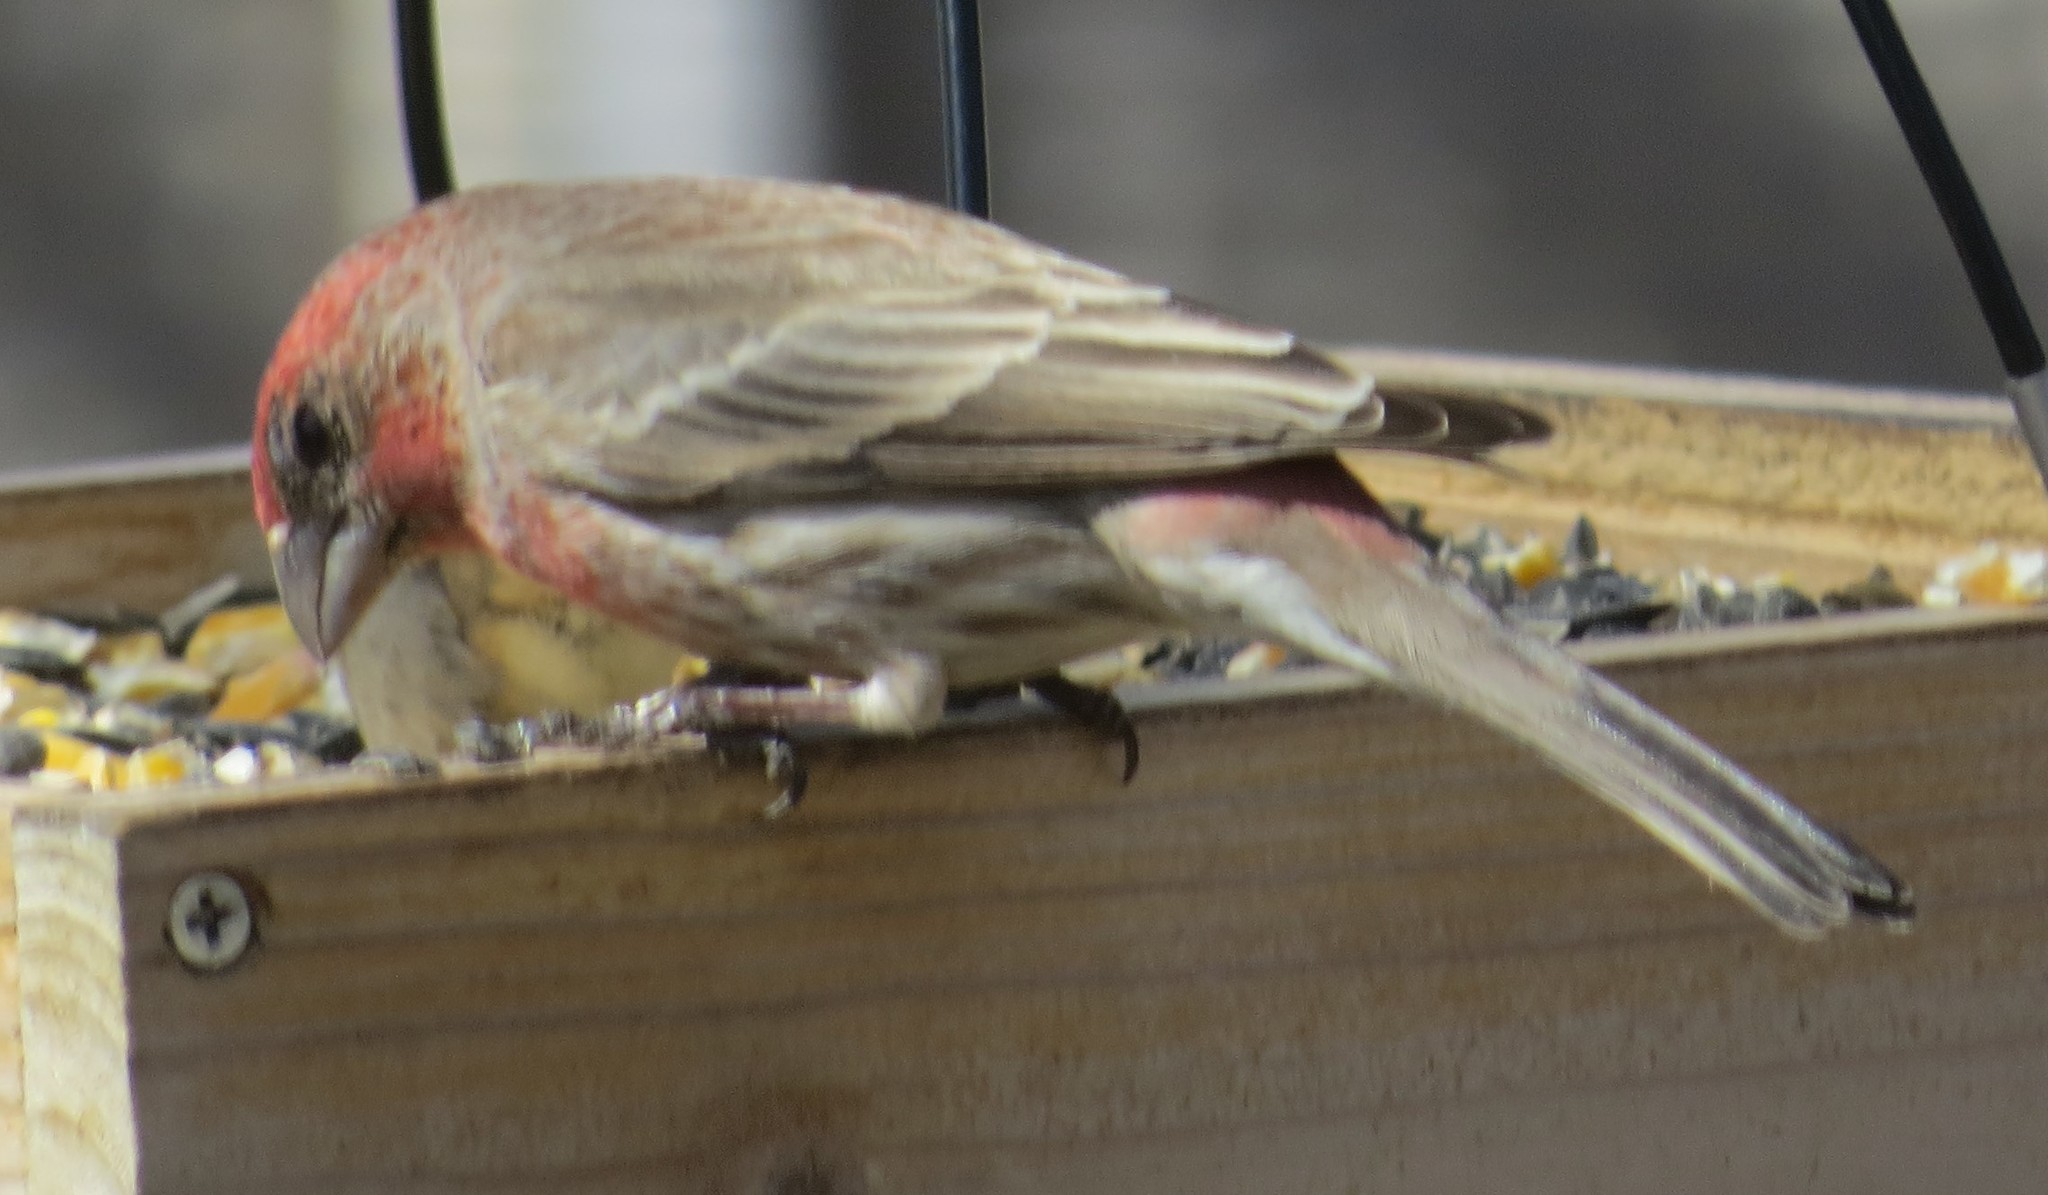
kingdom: Animalia
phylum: Chordata
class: Aves
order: Passeriformes
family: Fringillidae
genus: Haemorhous
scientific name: Haemorhous mexicanus
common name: House finch
